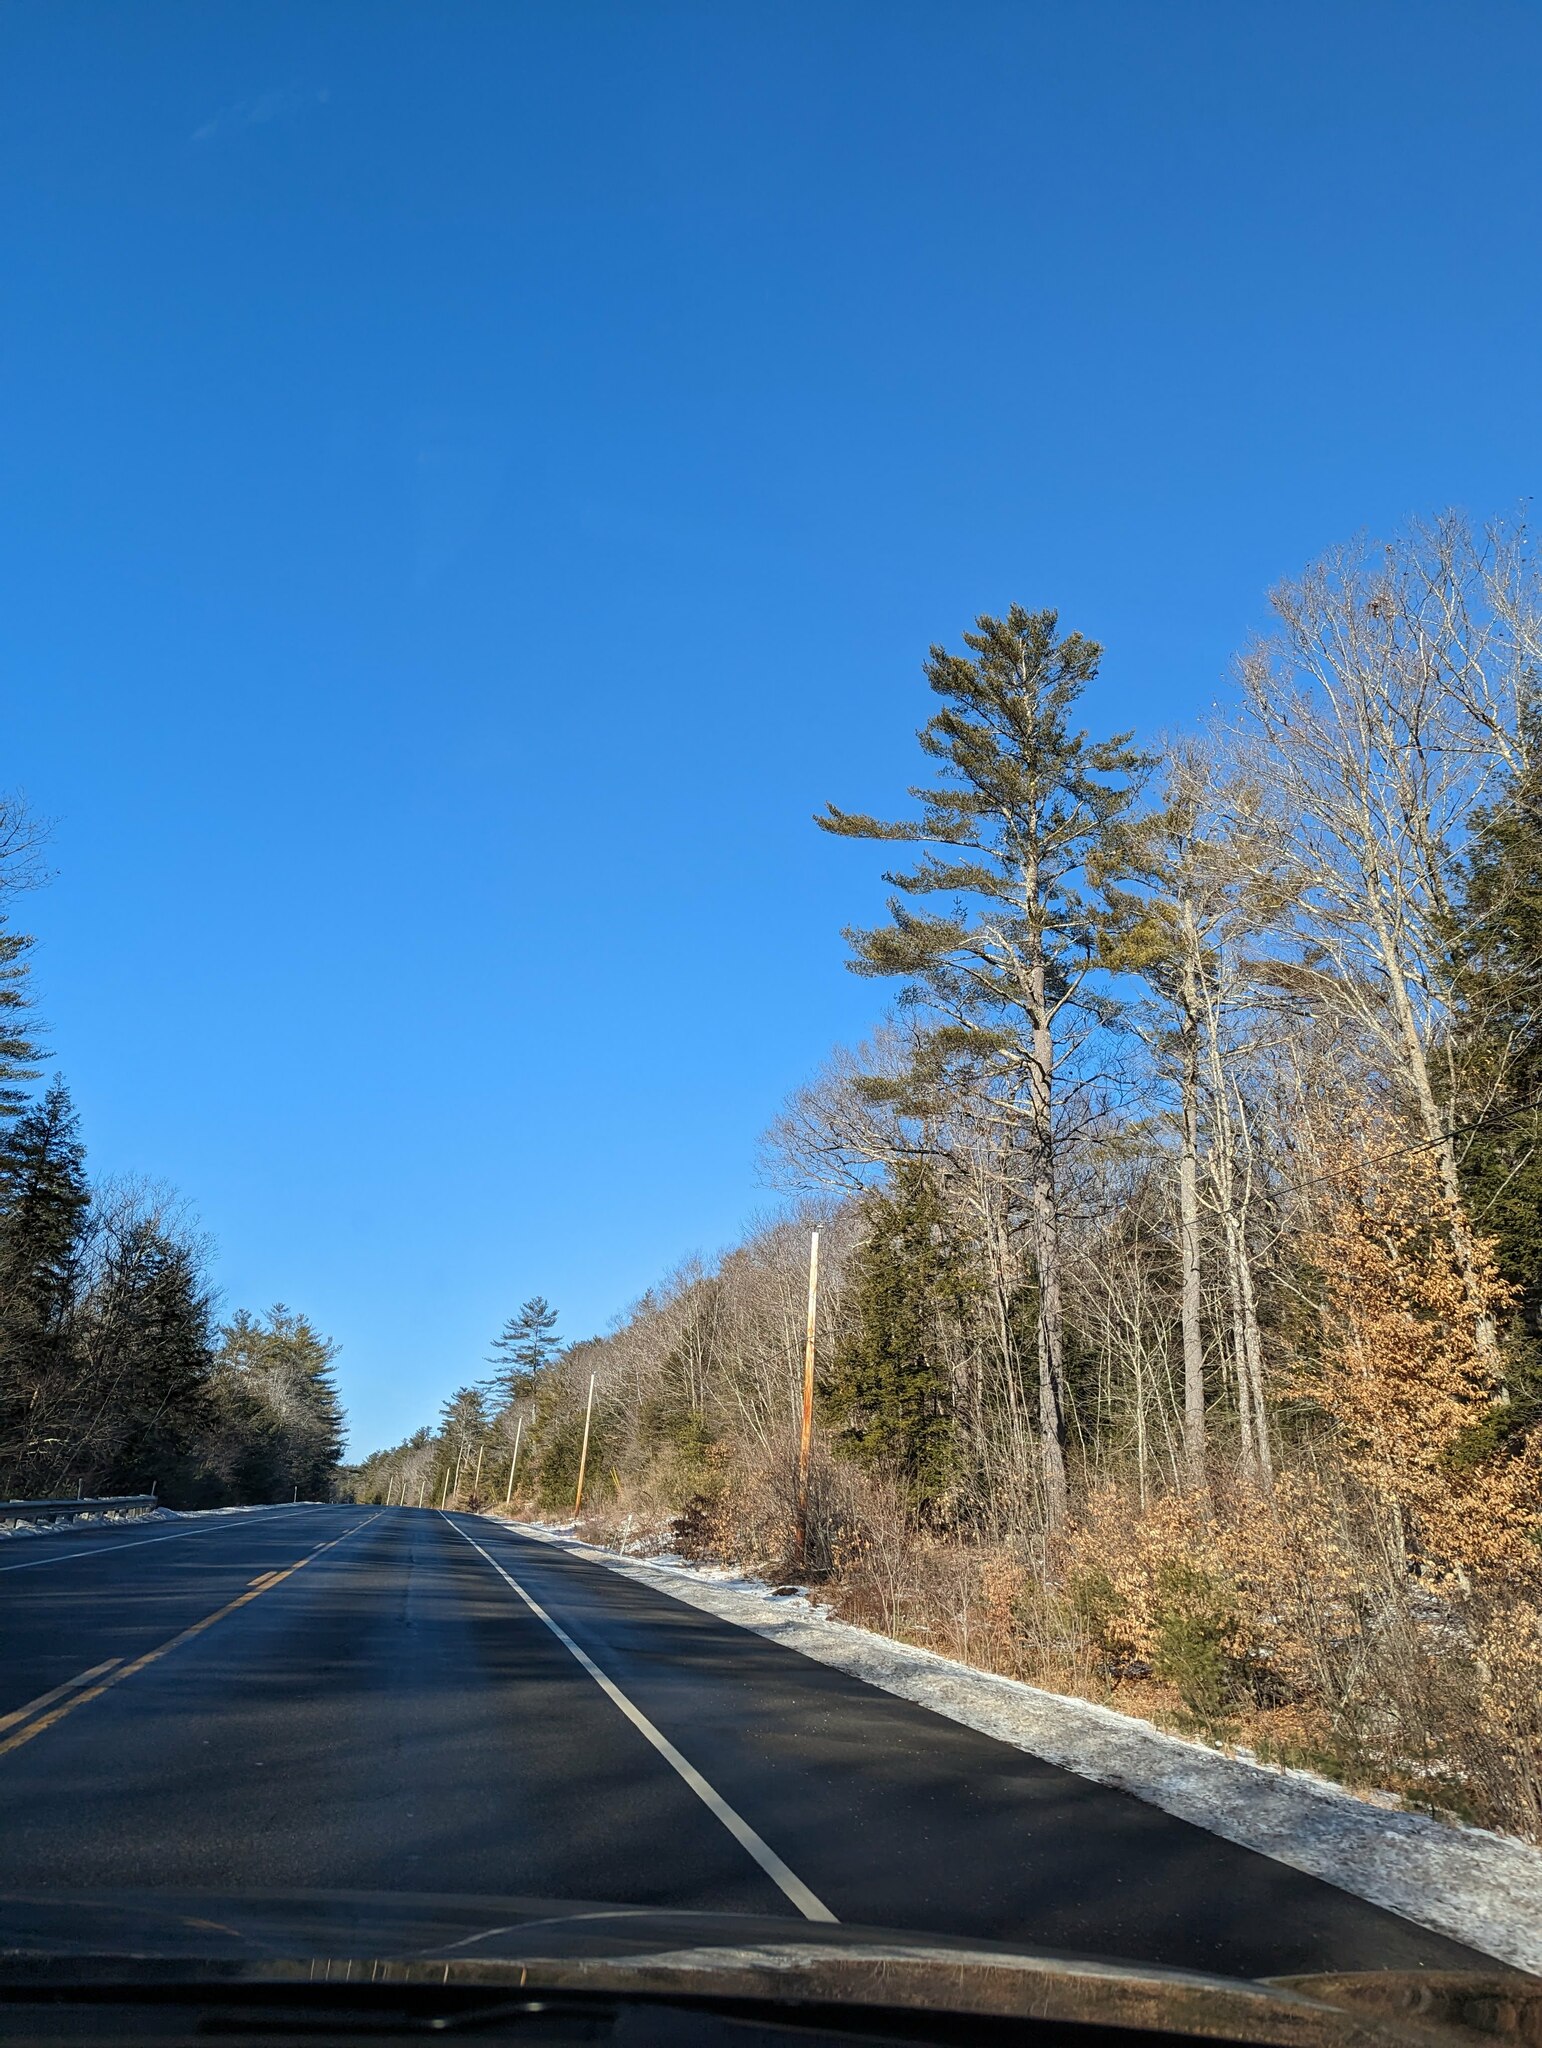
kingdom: Plantae
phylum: Tracheophyta
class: Pinopsida
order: Pinales
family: Pinaceae
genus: Pinus
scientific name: Pinus strobus
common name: Weymouth pine
